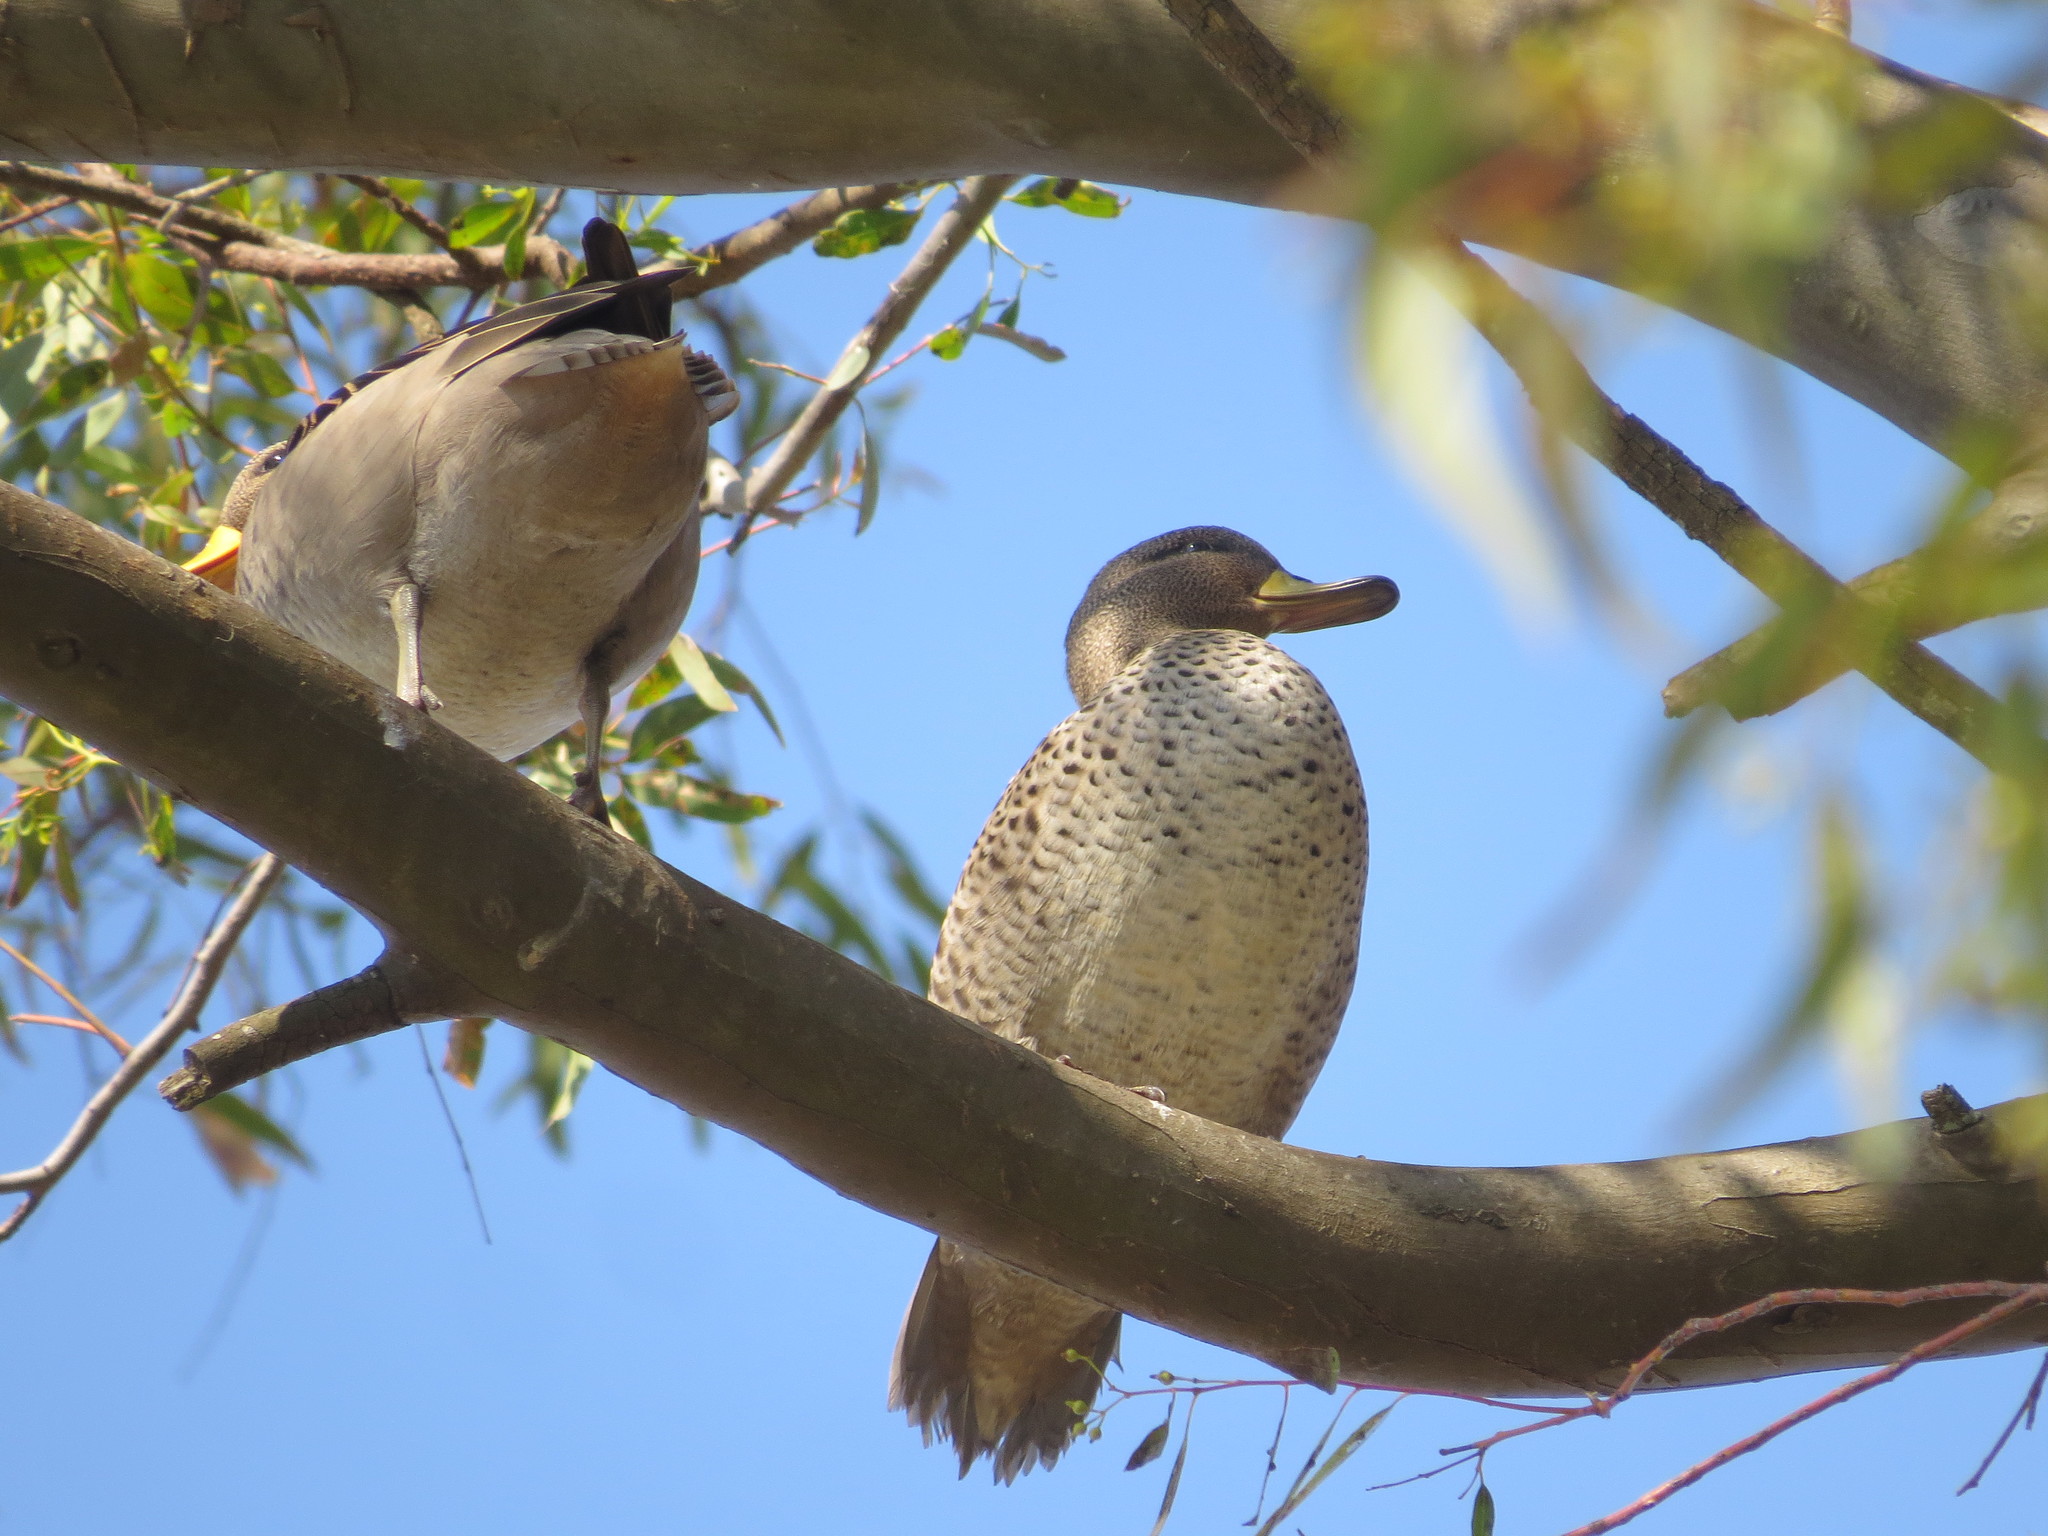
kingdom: Animalia
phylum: Chordata
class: Aves
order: Anseriformes
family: Anatidae
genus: Anas
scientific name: Anas flavirostris
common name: Yellow-billed teal
